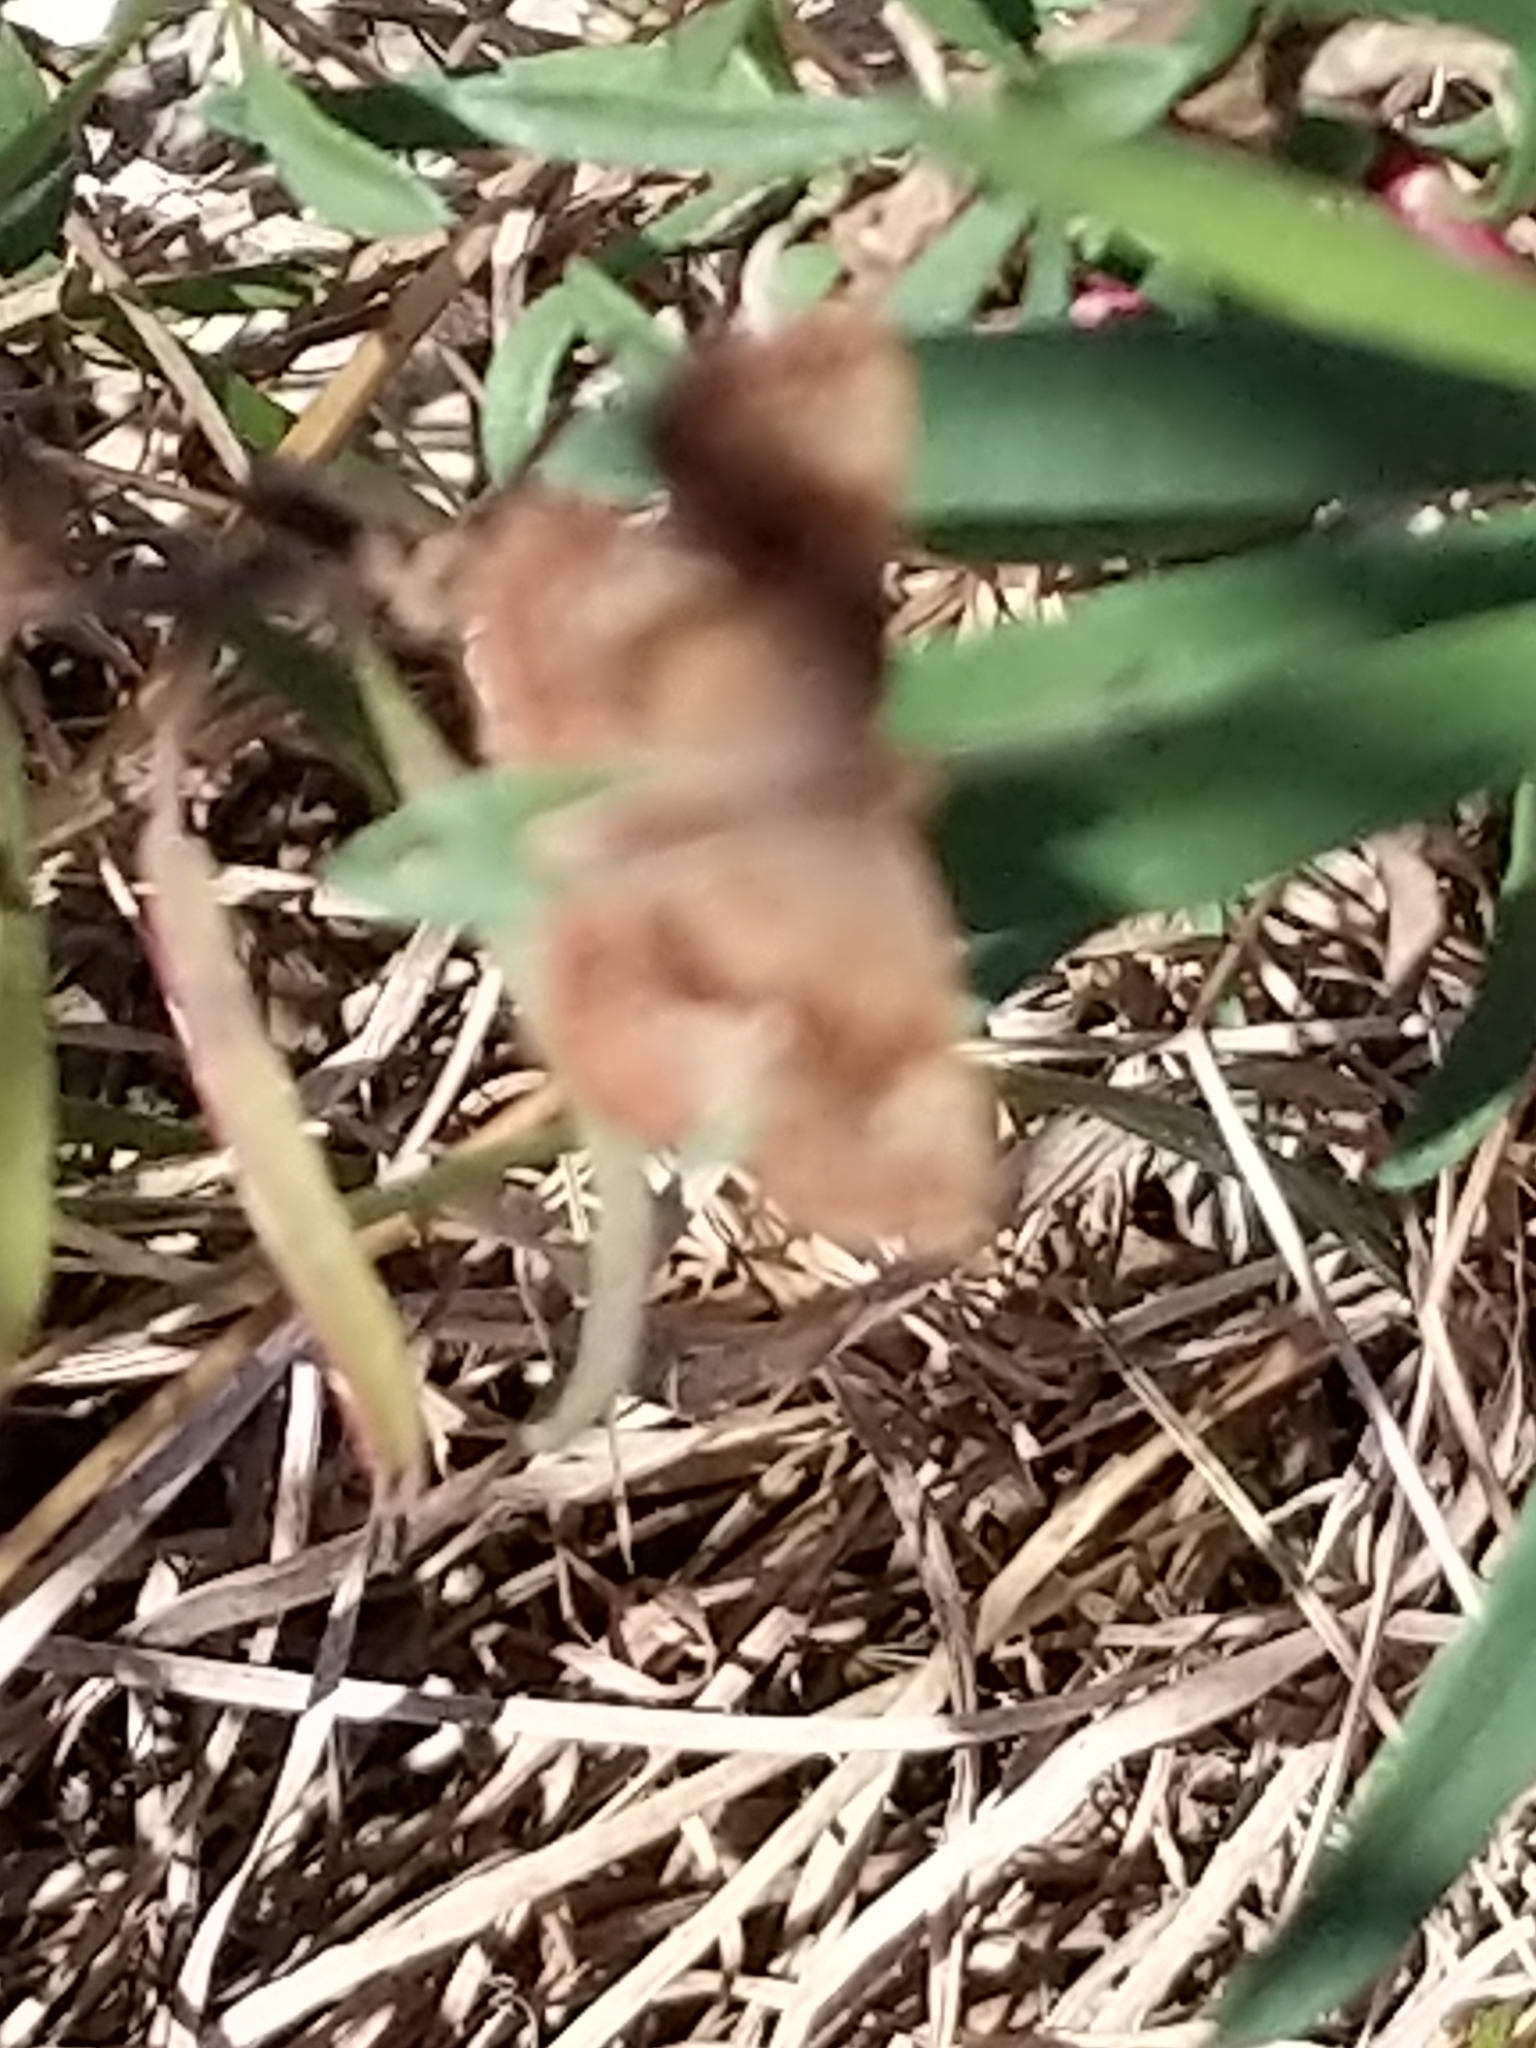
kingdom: Animalia
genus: Calephelis
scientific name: Calephelis perditalis
